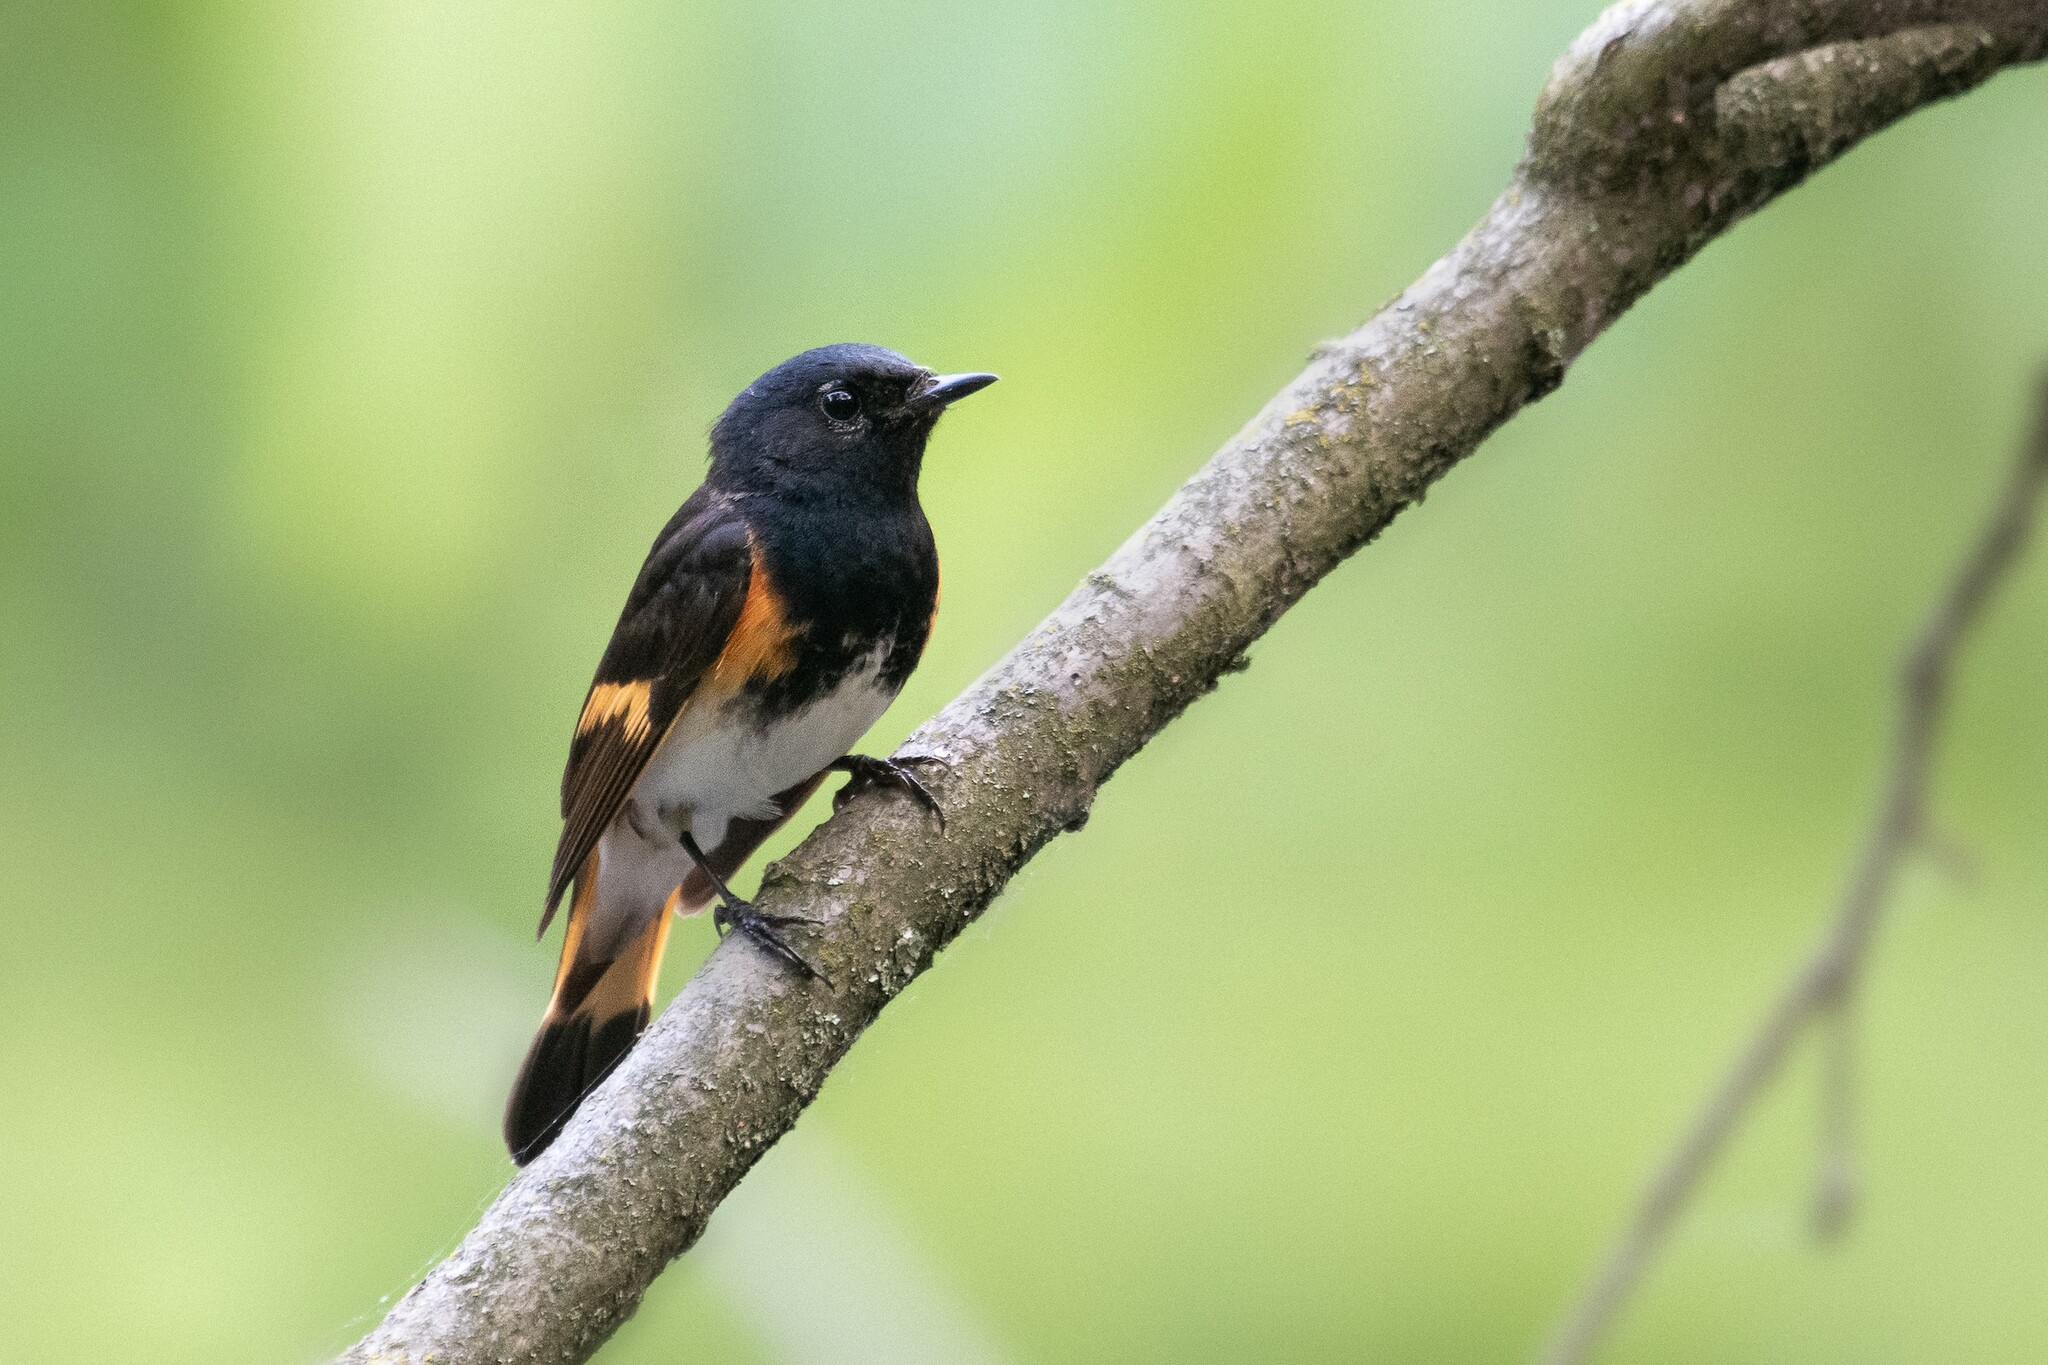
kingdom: Animalia
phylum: Chordata
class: Aves
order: Passeriformes
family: Parulidae
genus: Setophaga
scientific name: Setophaga ruticilla
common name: American redstart
